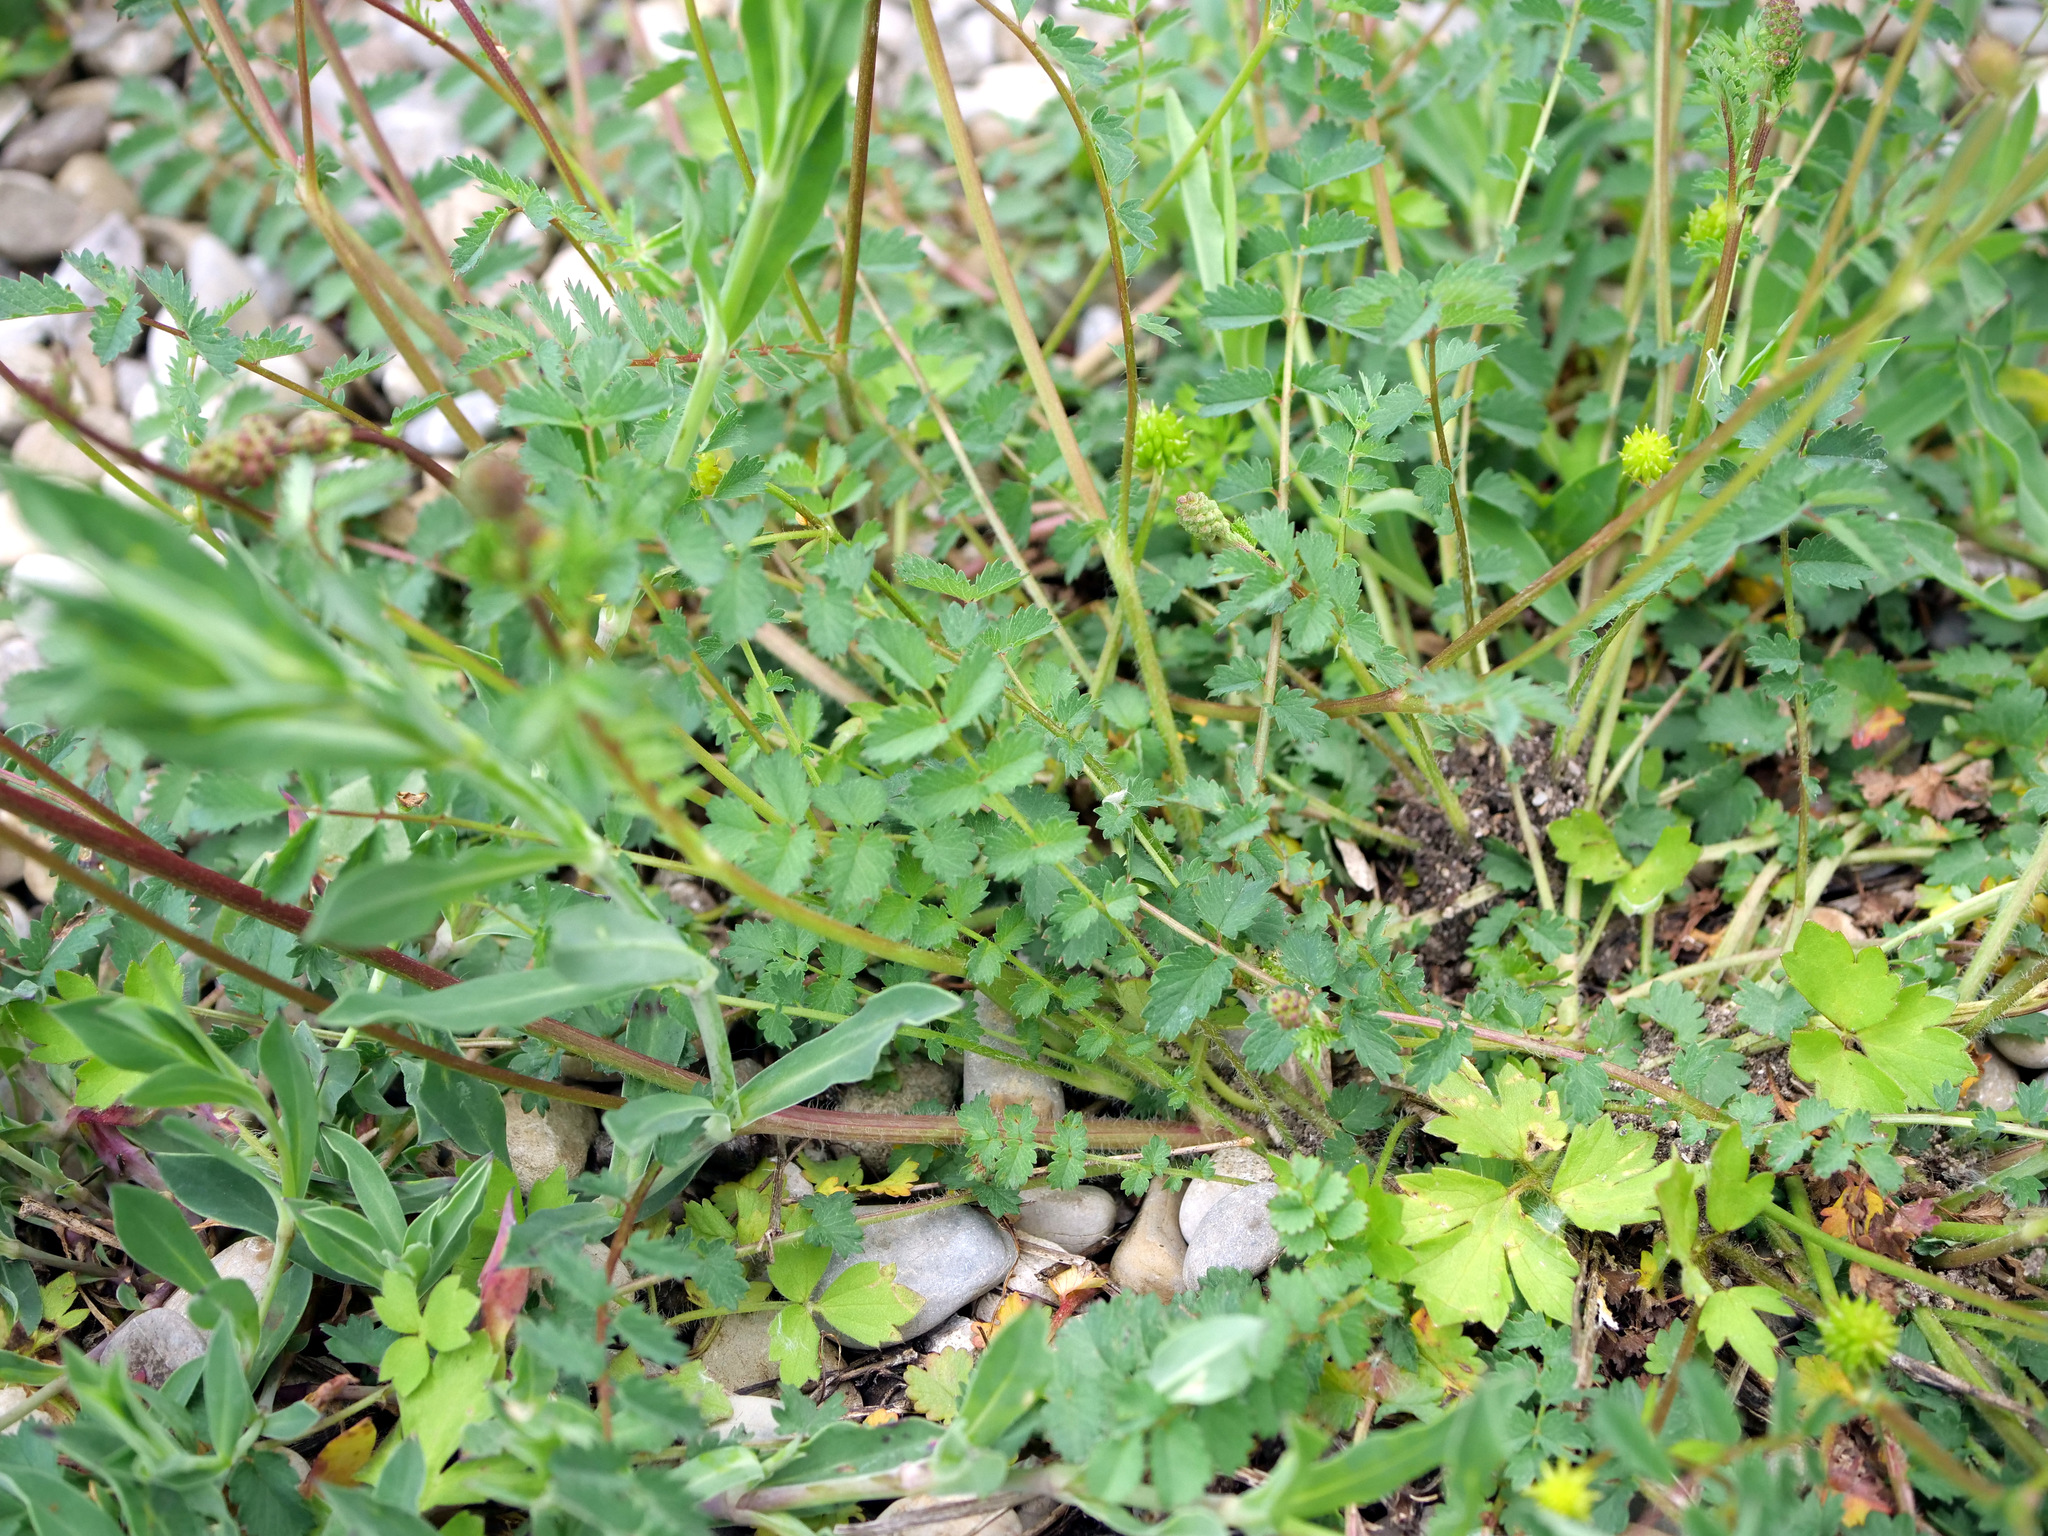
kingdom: Plantae
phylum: Tracheophyta
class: Magnoliopsida
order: Rosales
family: Rosaceae
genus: Poterium
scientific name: Poterium sanguisorba
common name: Salad burnet
